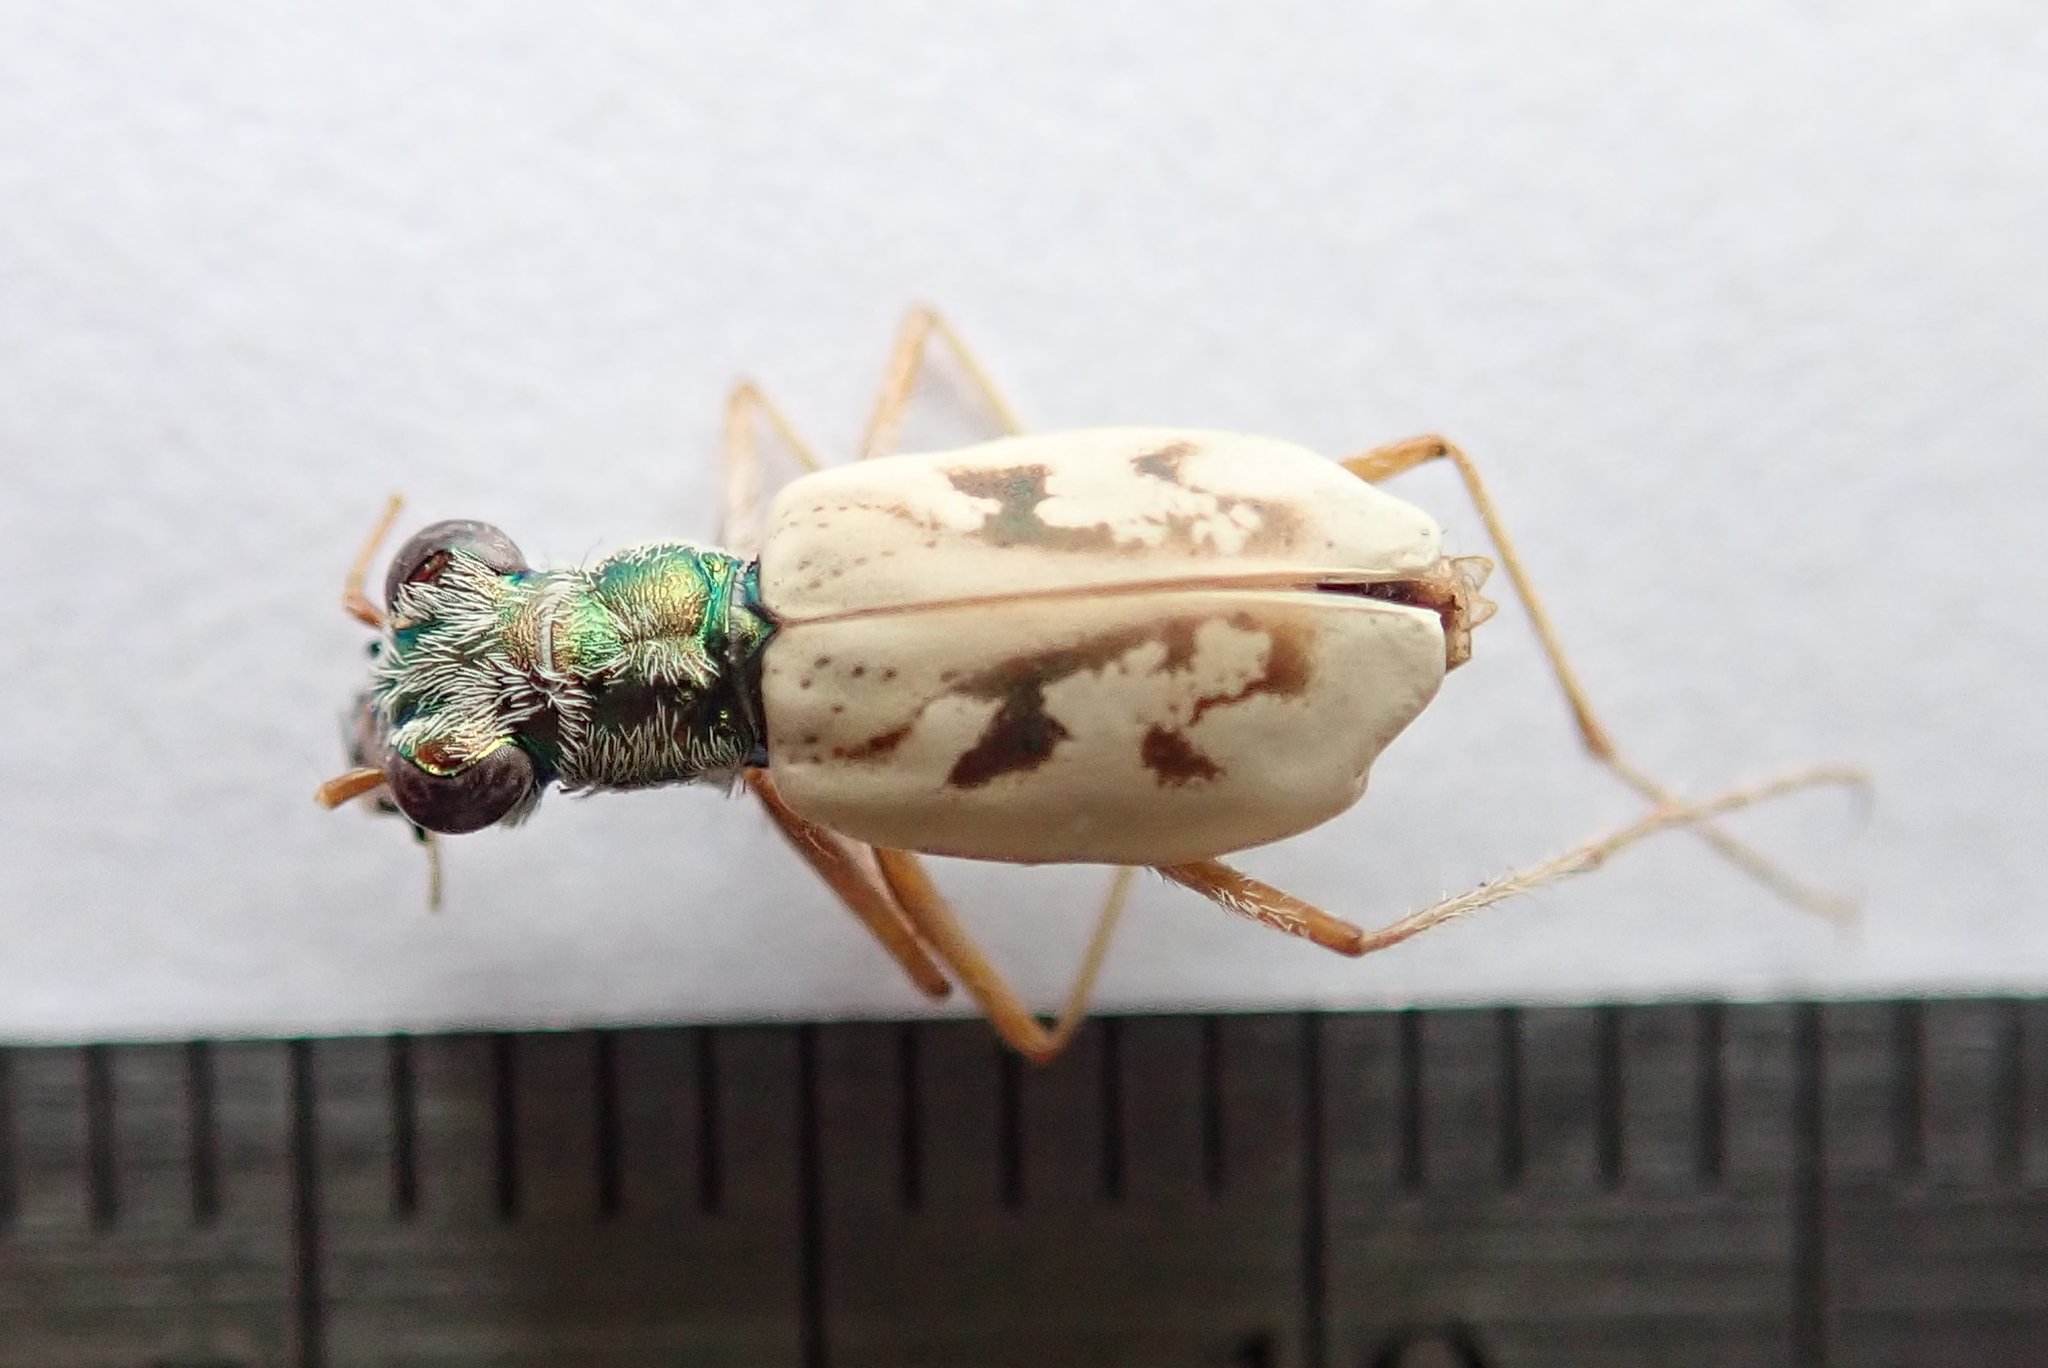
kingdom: Animalia
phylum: Arthropoda
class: Insecta
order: Coleoptera
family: Carabidae
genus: Ellipsoptera
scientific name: Ellipsoptera lepida
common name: Ghost tiger beetle
